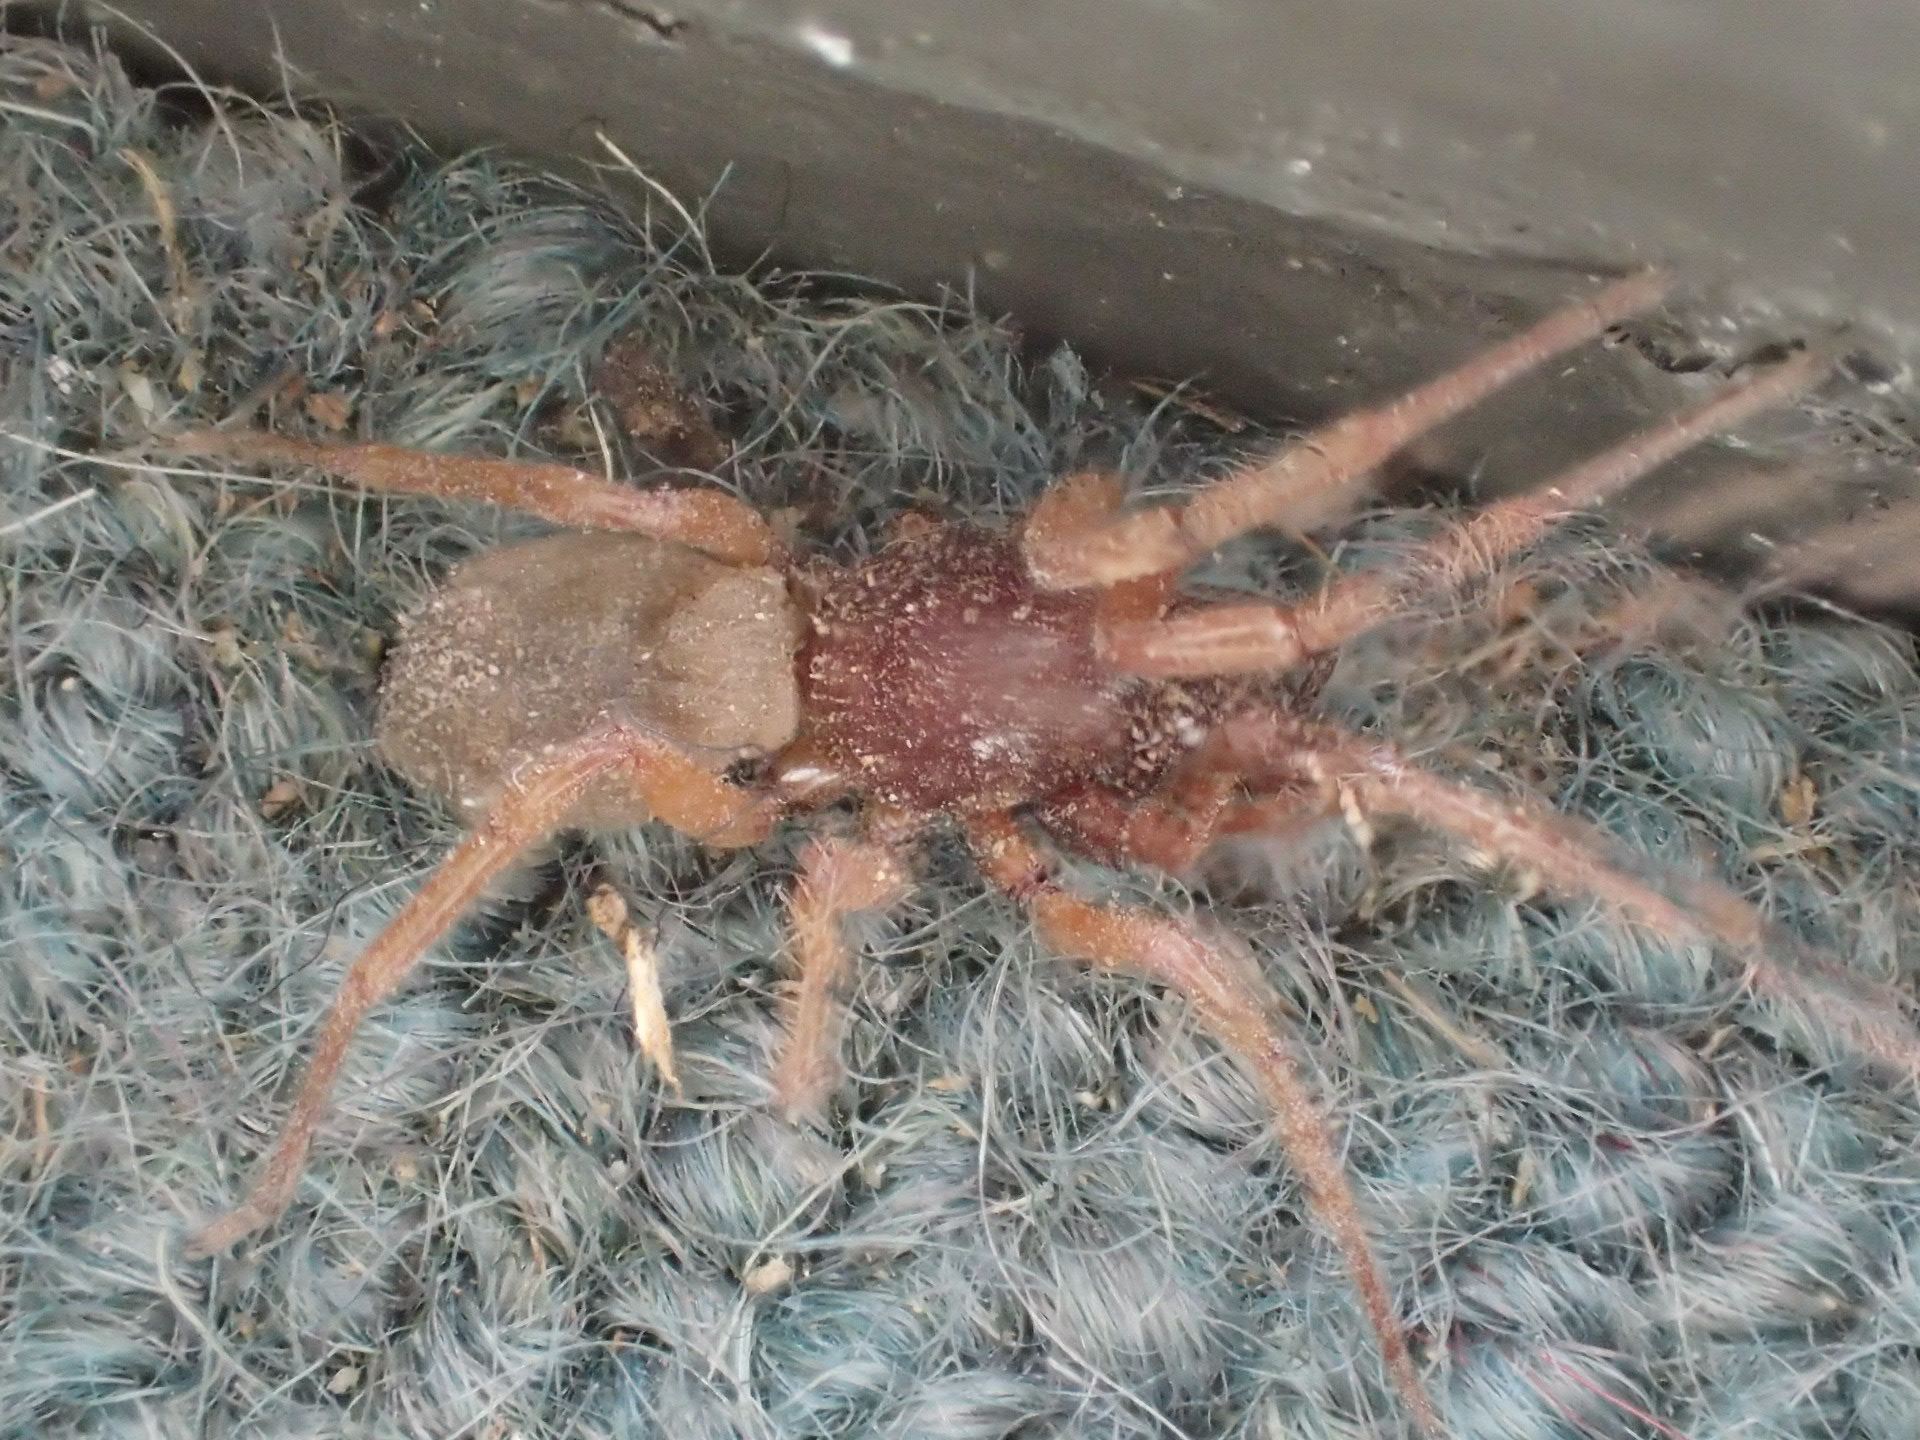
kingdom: Animalia
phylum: Arthropoda
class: Arachnida
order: Araneae
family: Dysderidae
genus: Dysdera
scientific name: Dysdera crocata
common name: Woodlouse spider
